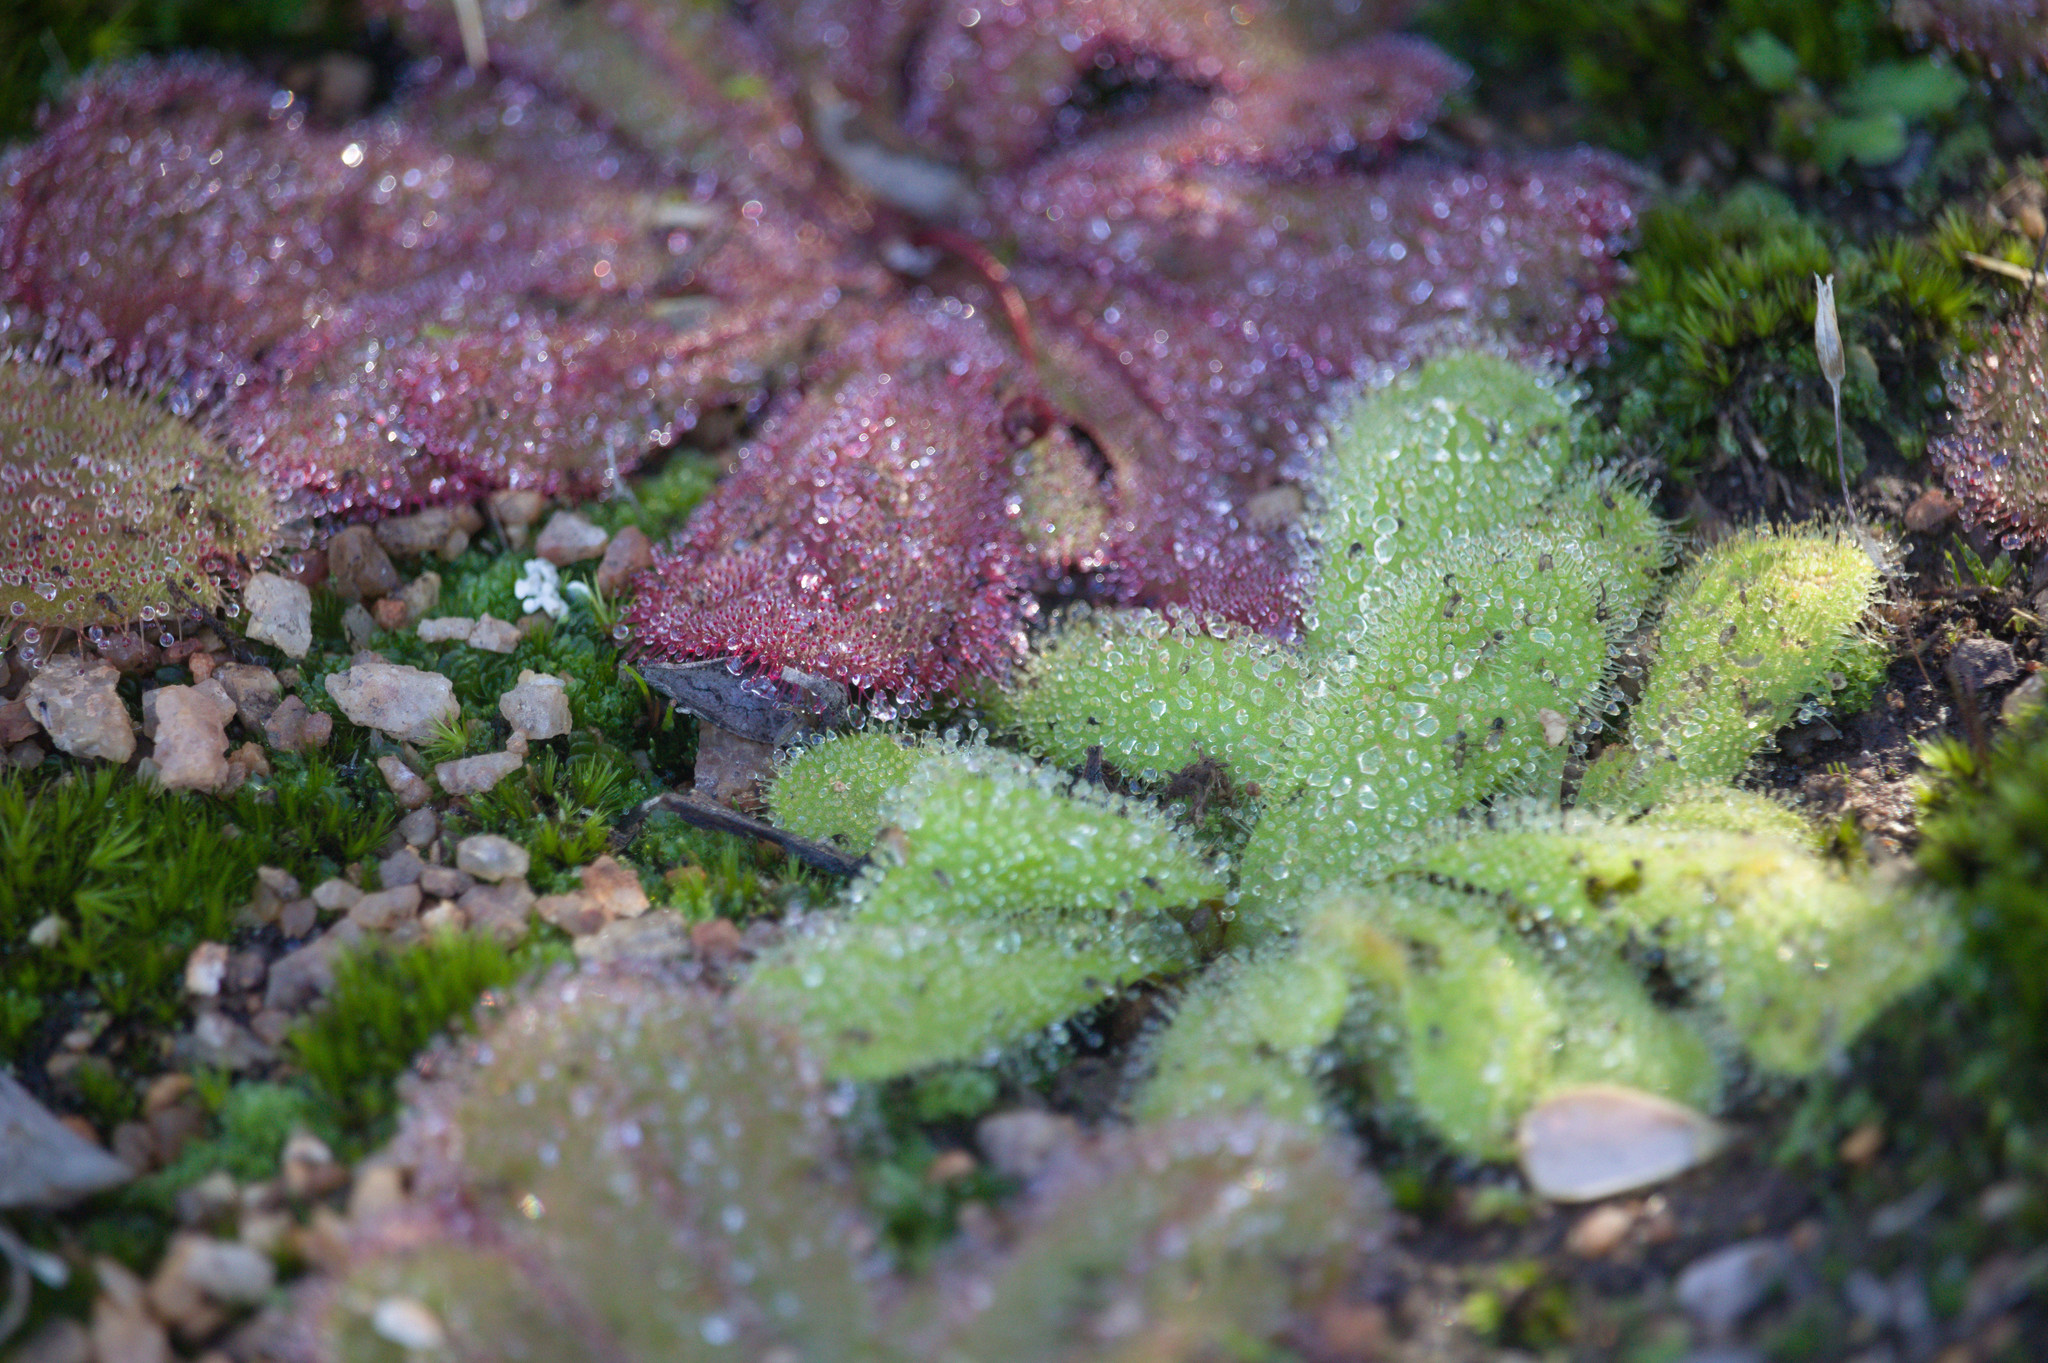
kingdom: Plantae
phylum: Tracheophyta
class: Magnoliopsida
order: Caryophyllales
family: Droseraceae
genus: Drosera
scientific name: Drosera bulbosa
